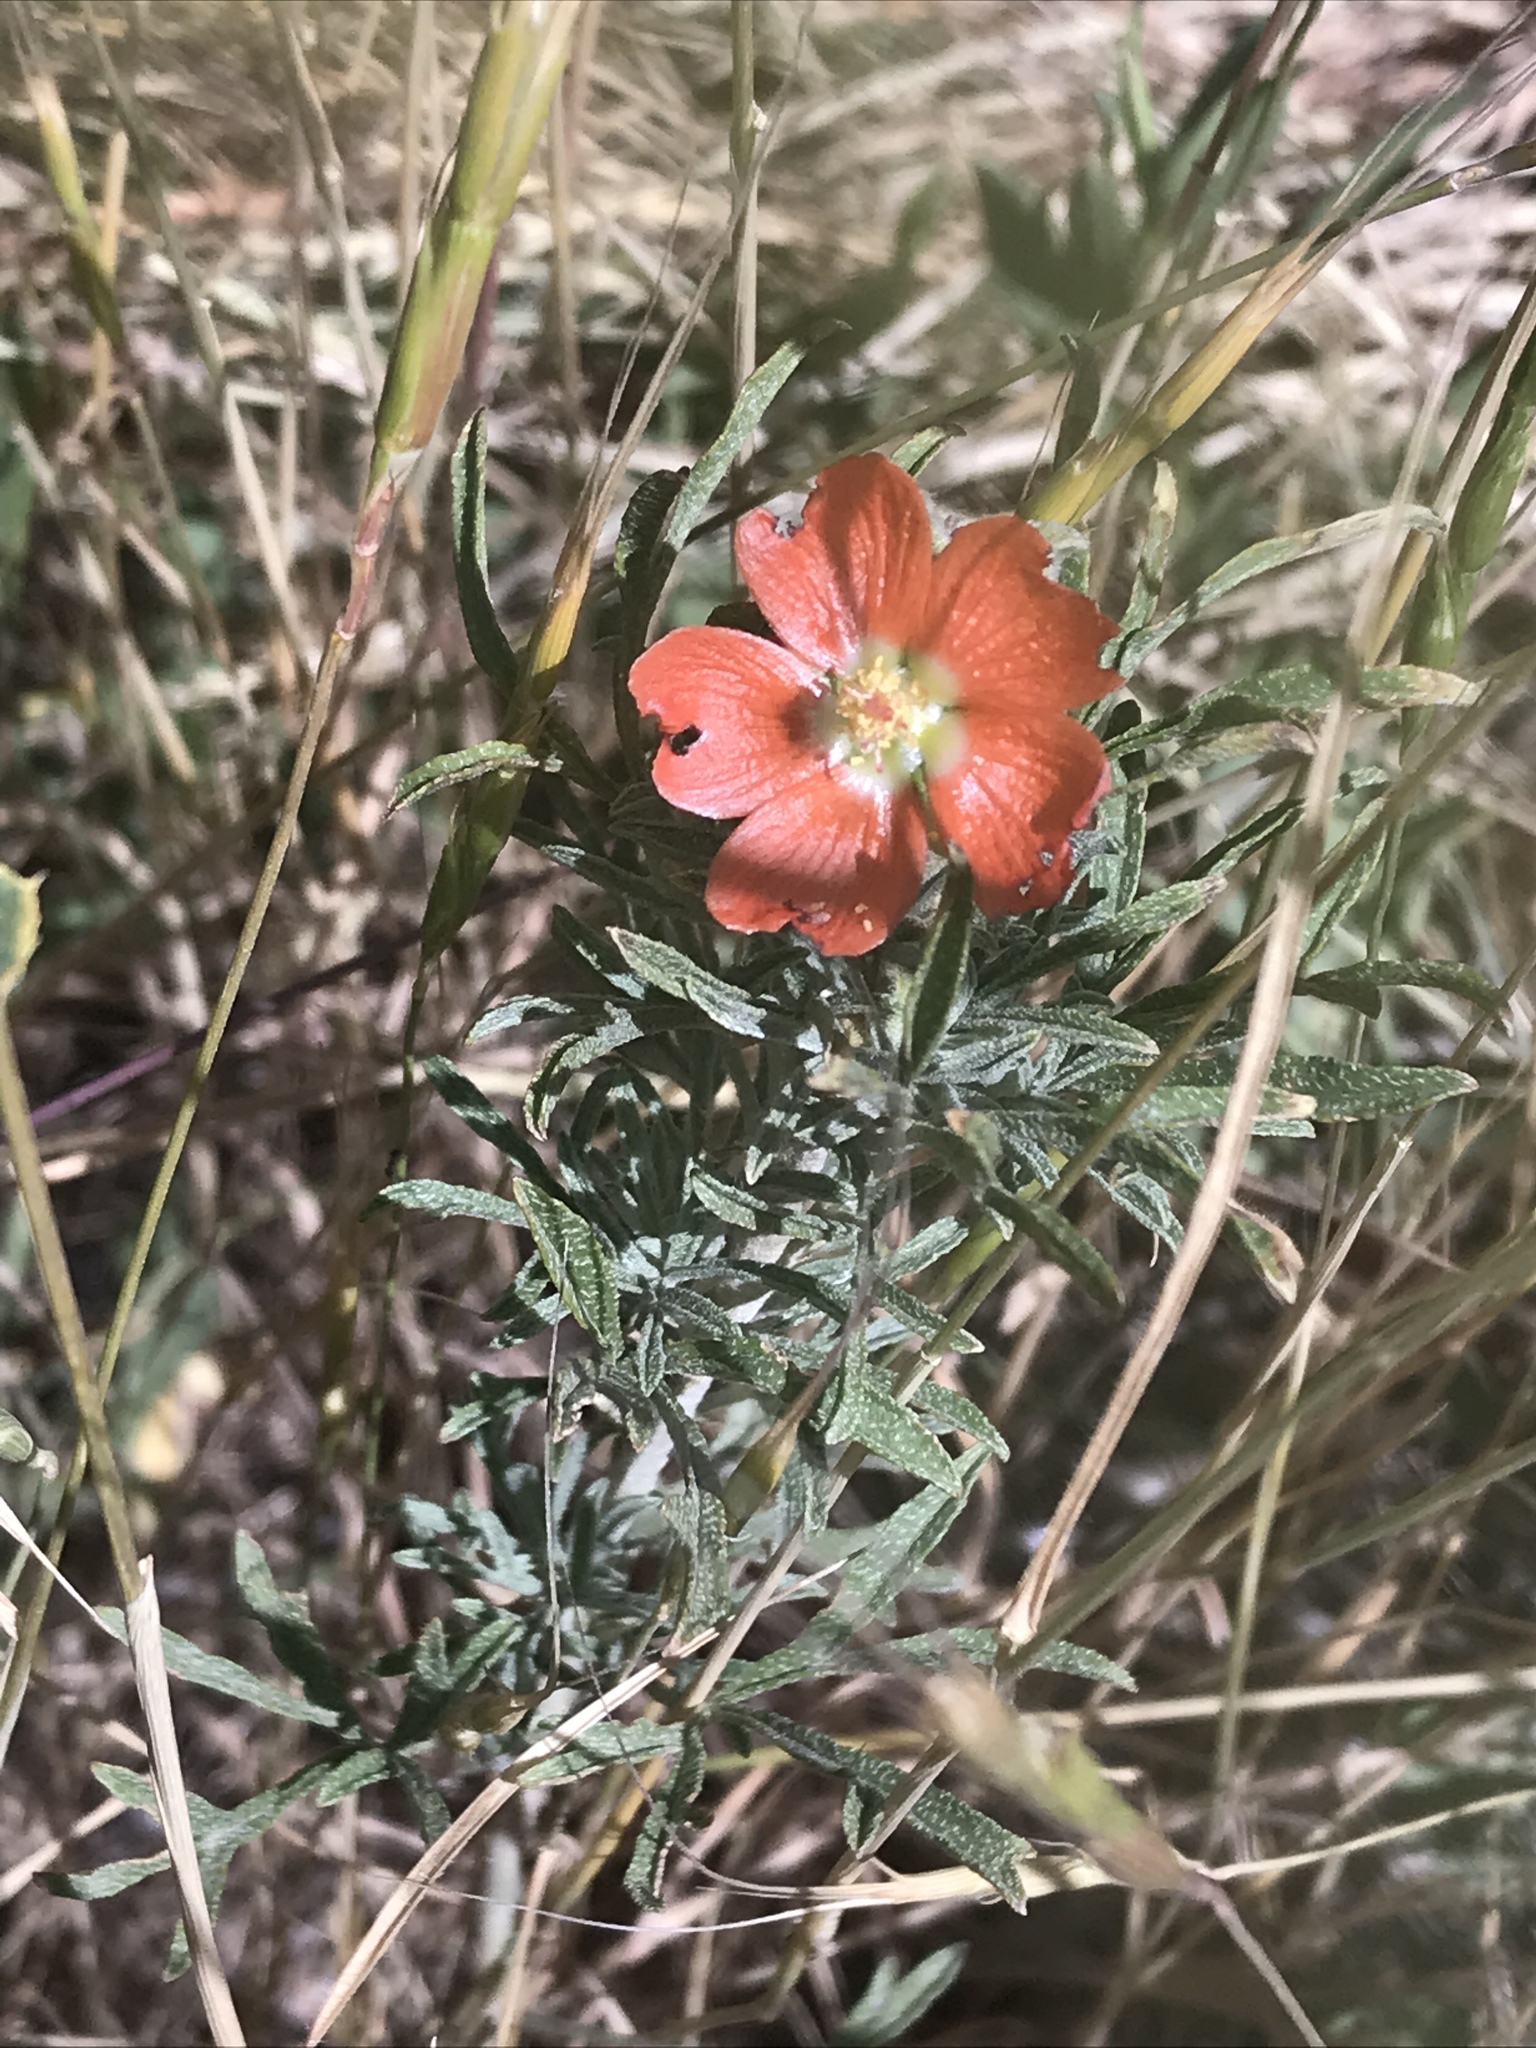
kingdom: Plantae
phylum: Tracheophyta
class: Magnoliopsida
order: Malvales
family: Malvaceae
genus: Sphaeralcea
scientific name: Sphaeralcea coccinea
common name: Moss-rose
